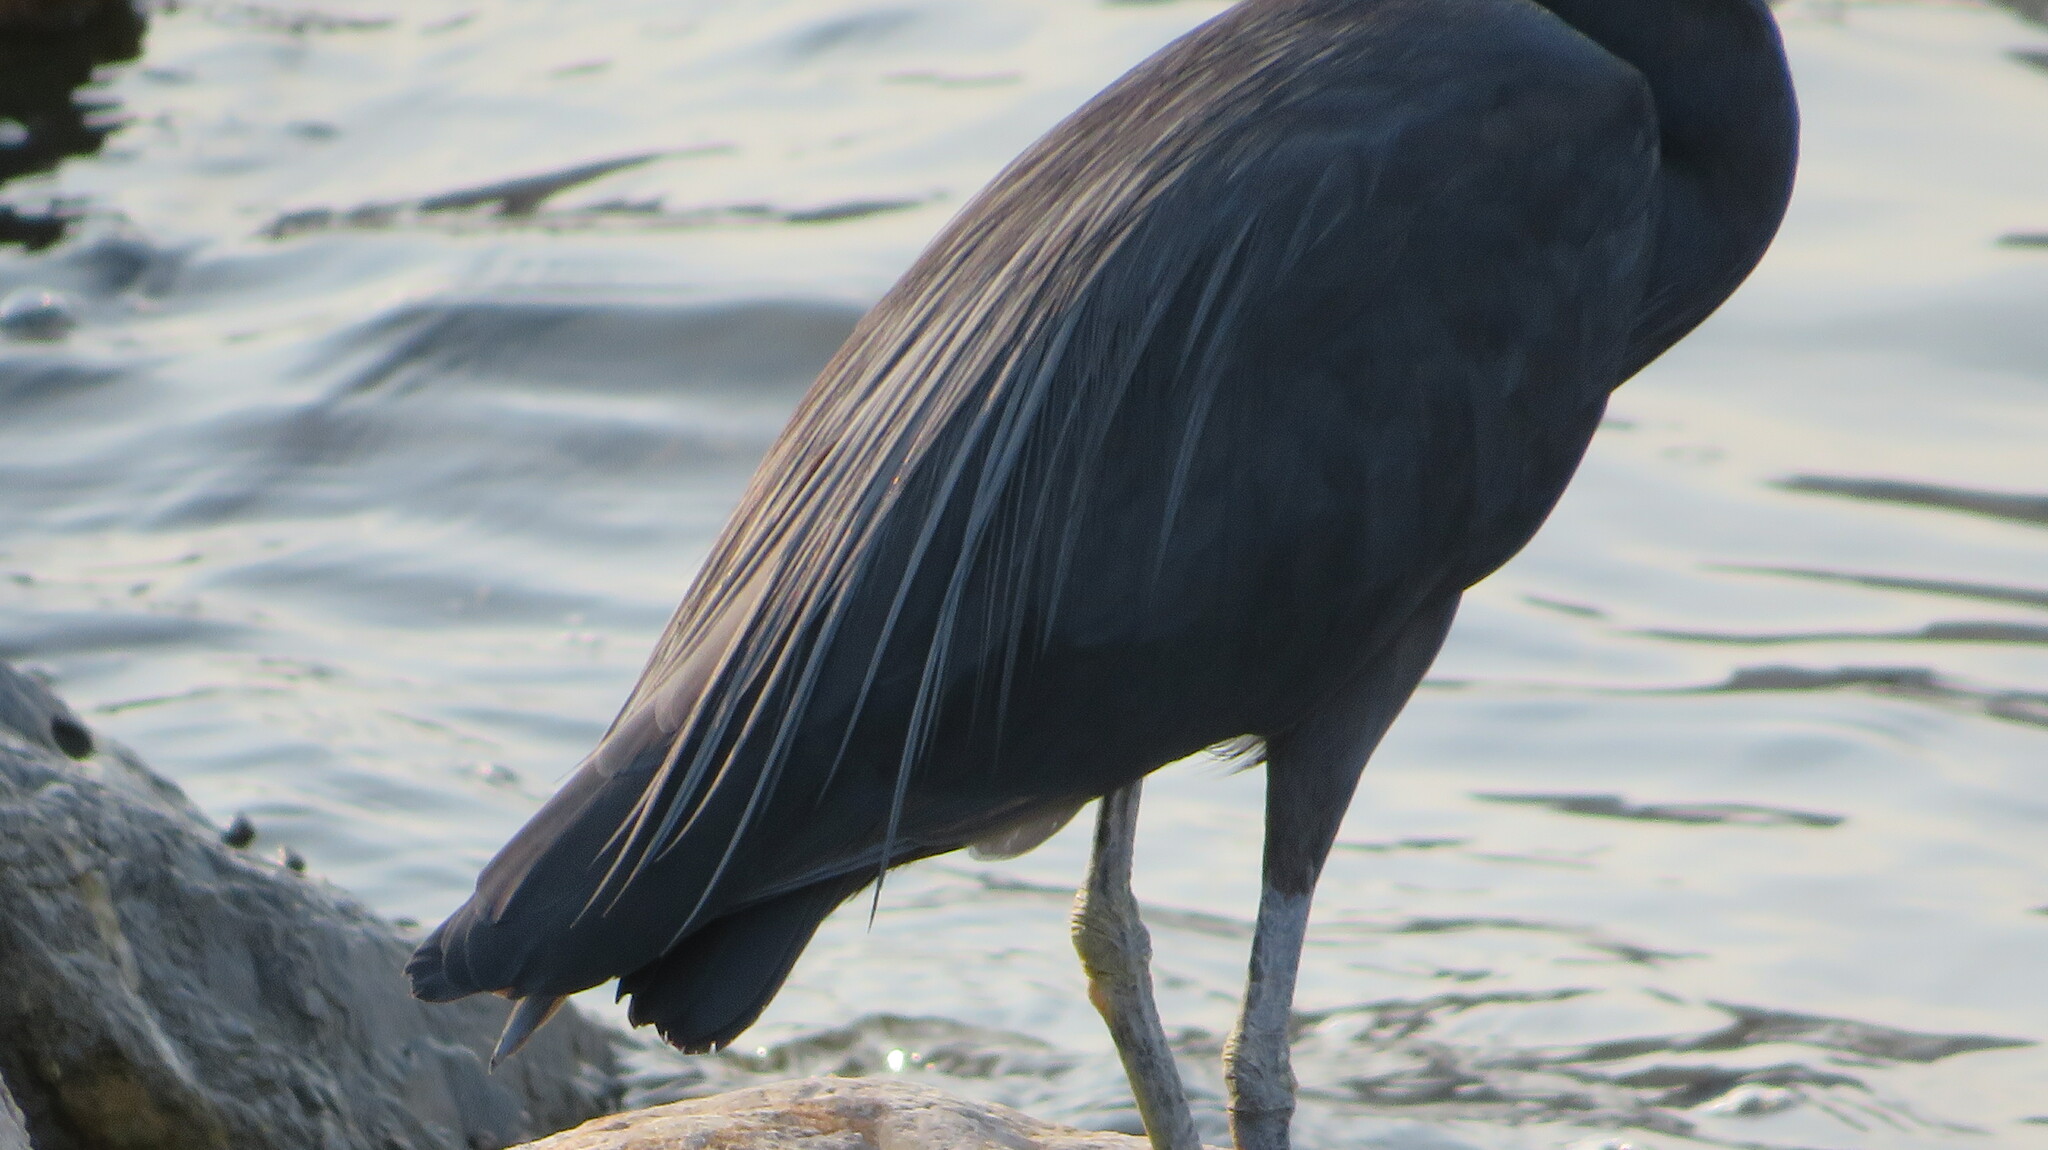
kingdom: Animalia
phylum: Chordata
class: Aves
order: Pelecaniformes
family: Ardeidae
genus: Egretta
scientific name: Egretta sacra
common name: Pacific reef heron
